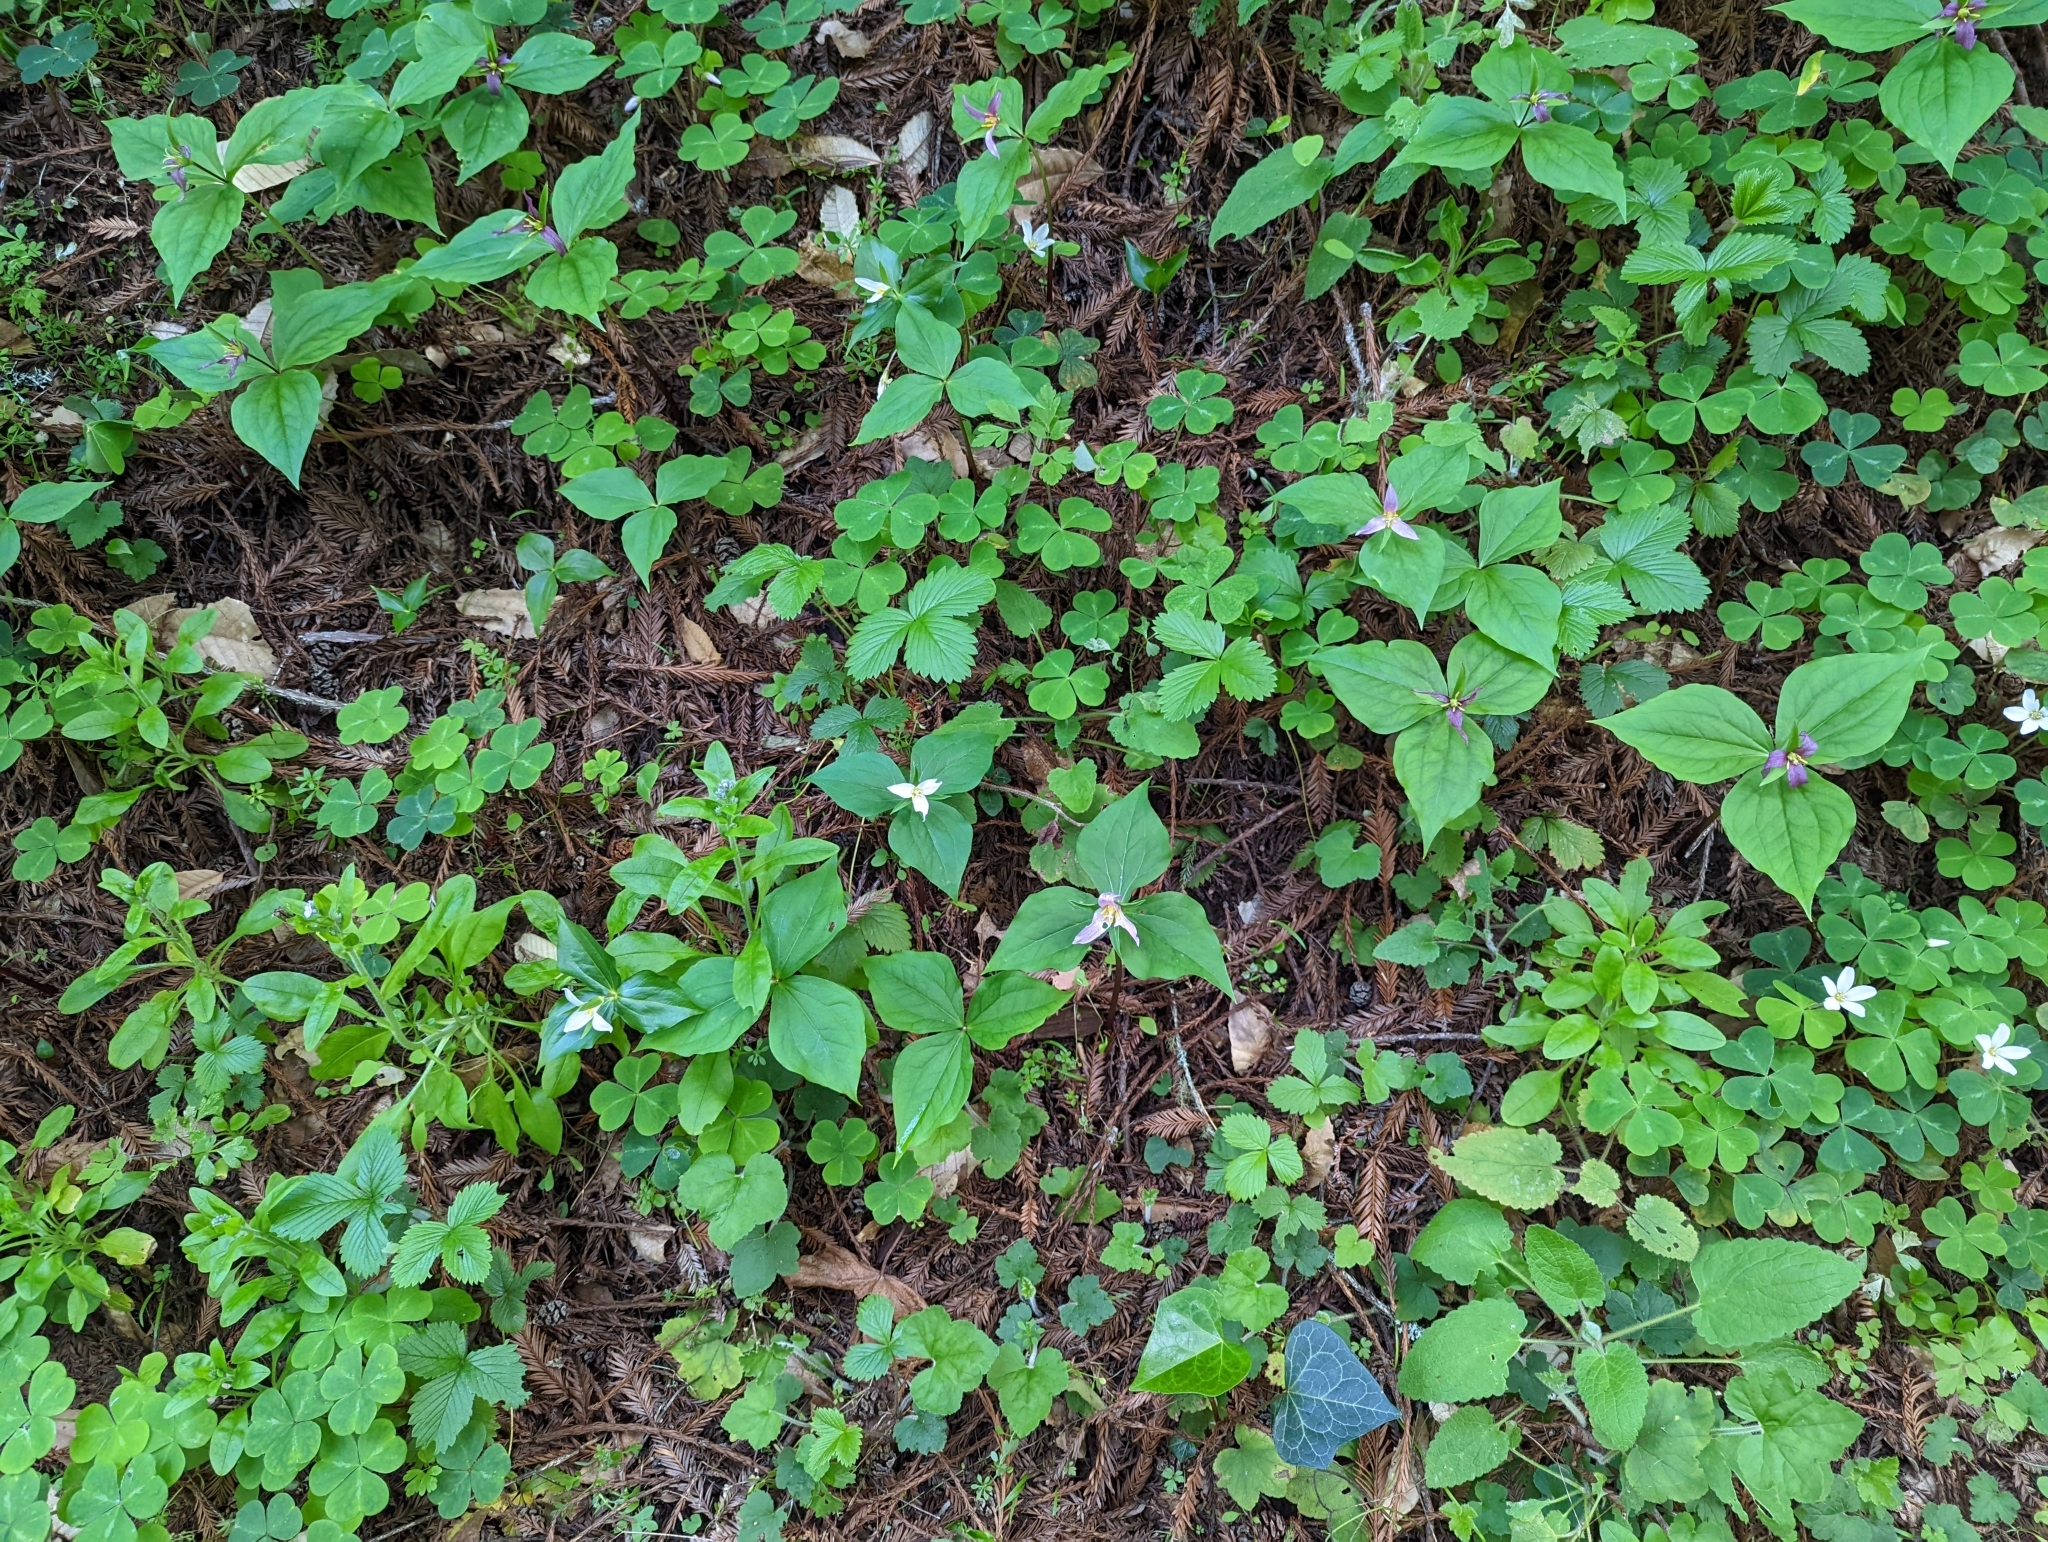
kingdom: Plantae
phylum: Tracheophyta
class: Liliopsida
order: Liliales
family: Melanthiaceae
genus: Trillium
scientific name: Trillium ovatum
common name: Pacific trillium
